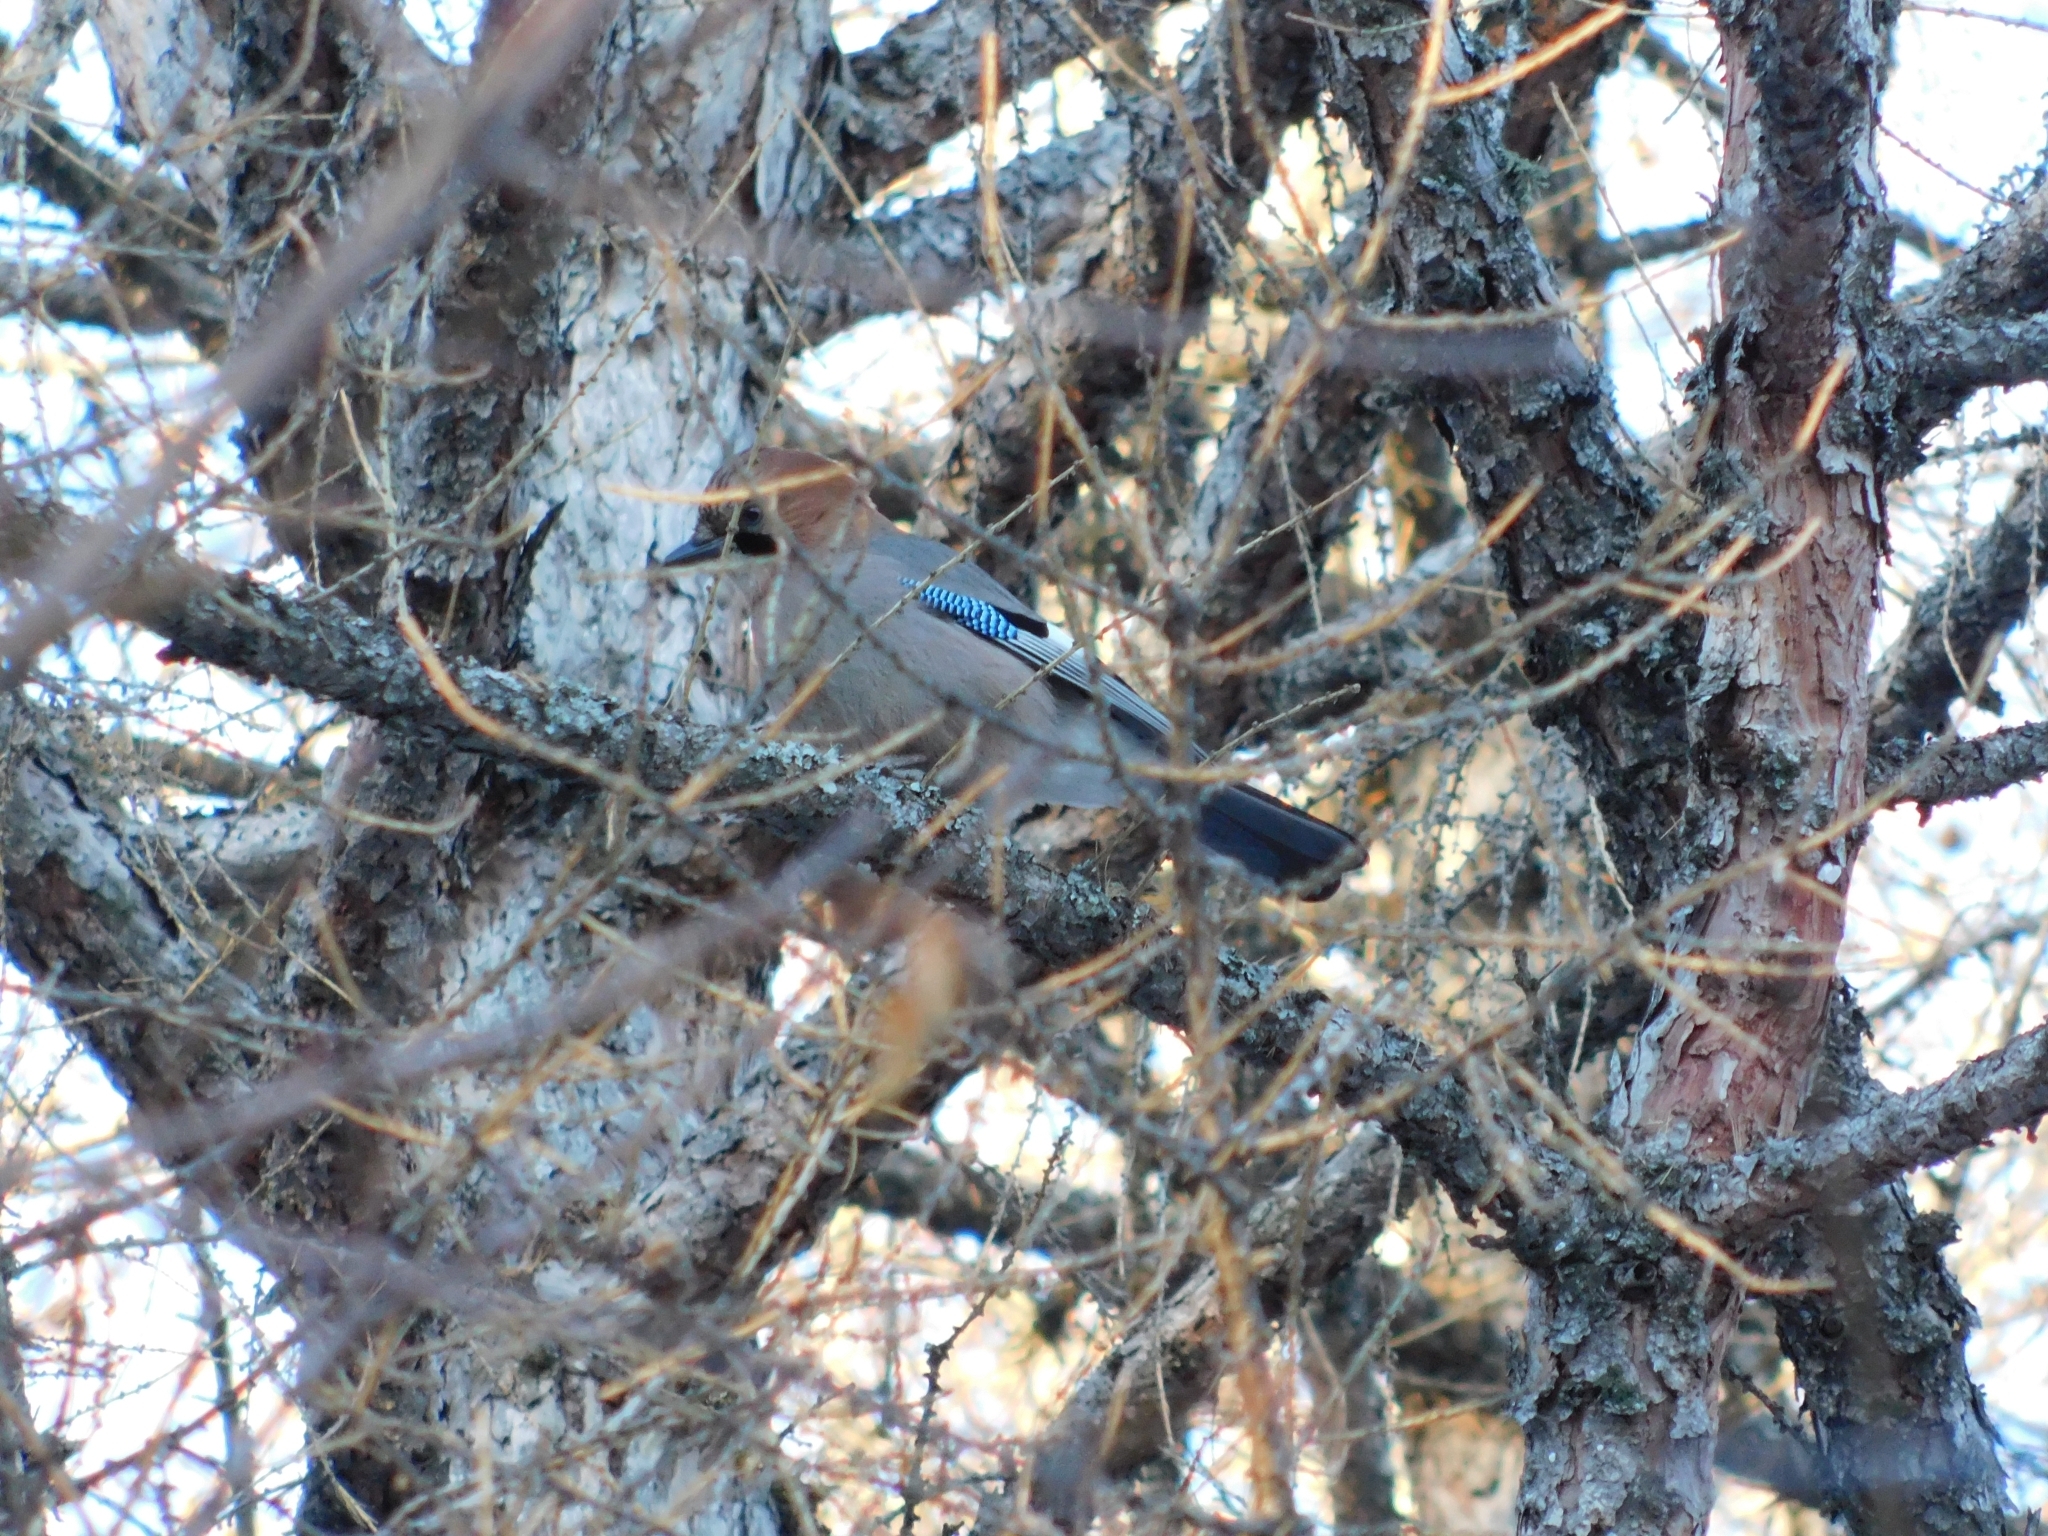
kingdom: Animalia
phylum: Chordata
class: Aves
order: Passeriformes
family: Corvidae
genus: Garrulus
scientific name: Garrulus glandarius
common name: Eurasian jay
